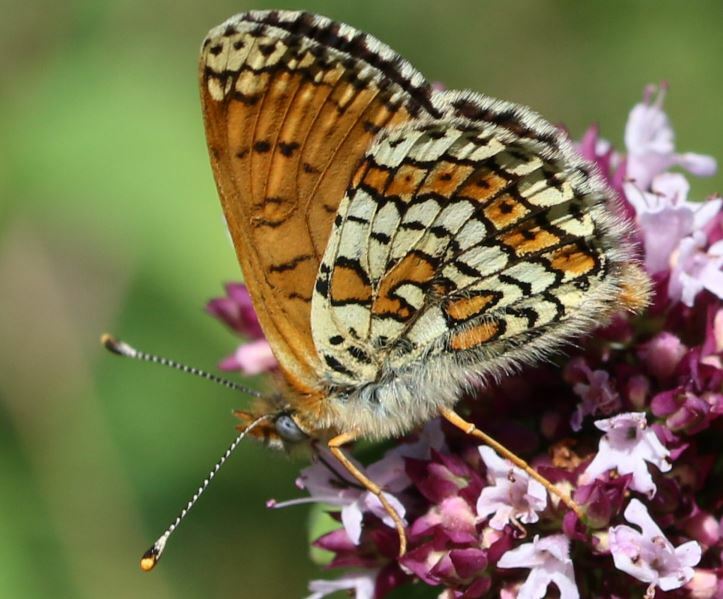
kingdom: Animalia
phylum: Arthropoda
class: Insecta
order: Lepidoptera
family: Nymphalidae
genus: Melitaea
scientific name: Melitaea cinxia
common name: Glanville fritillary
